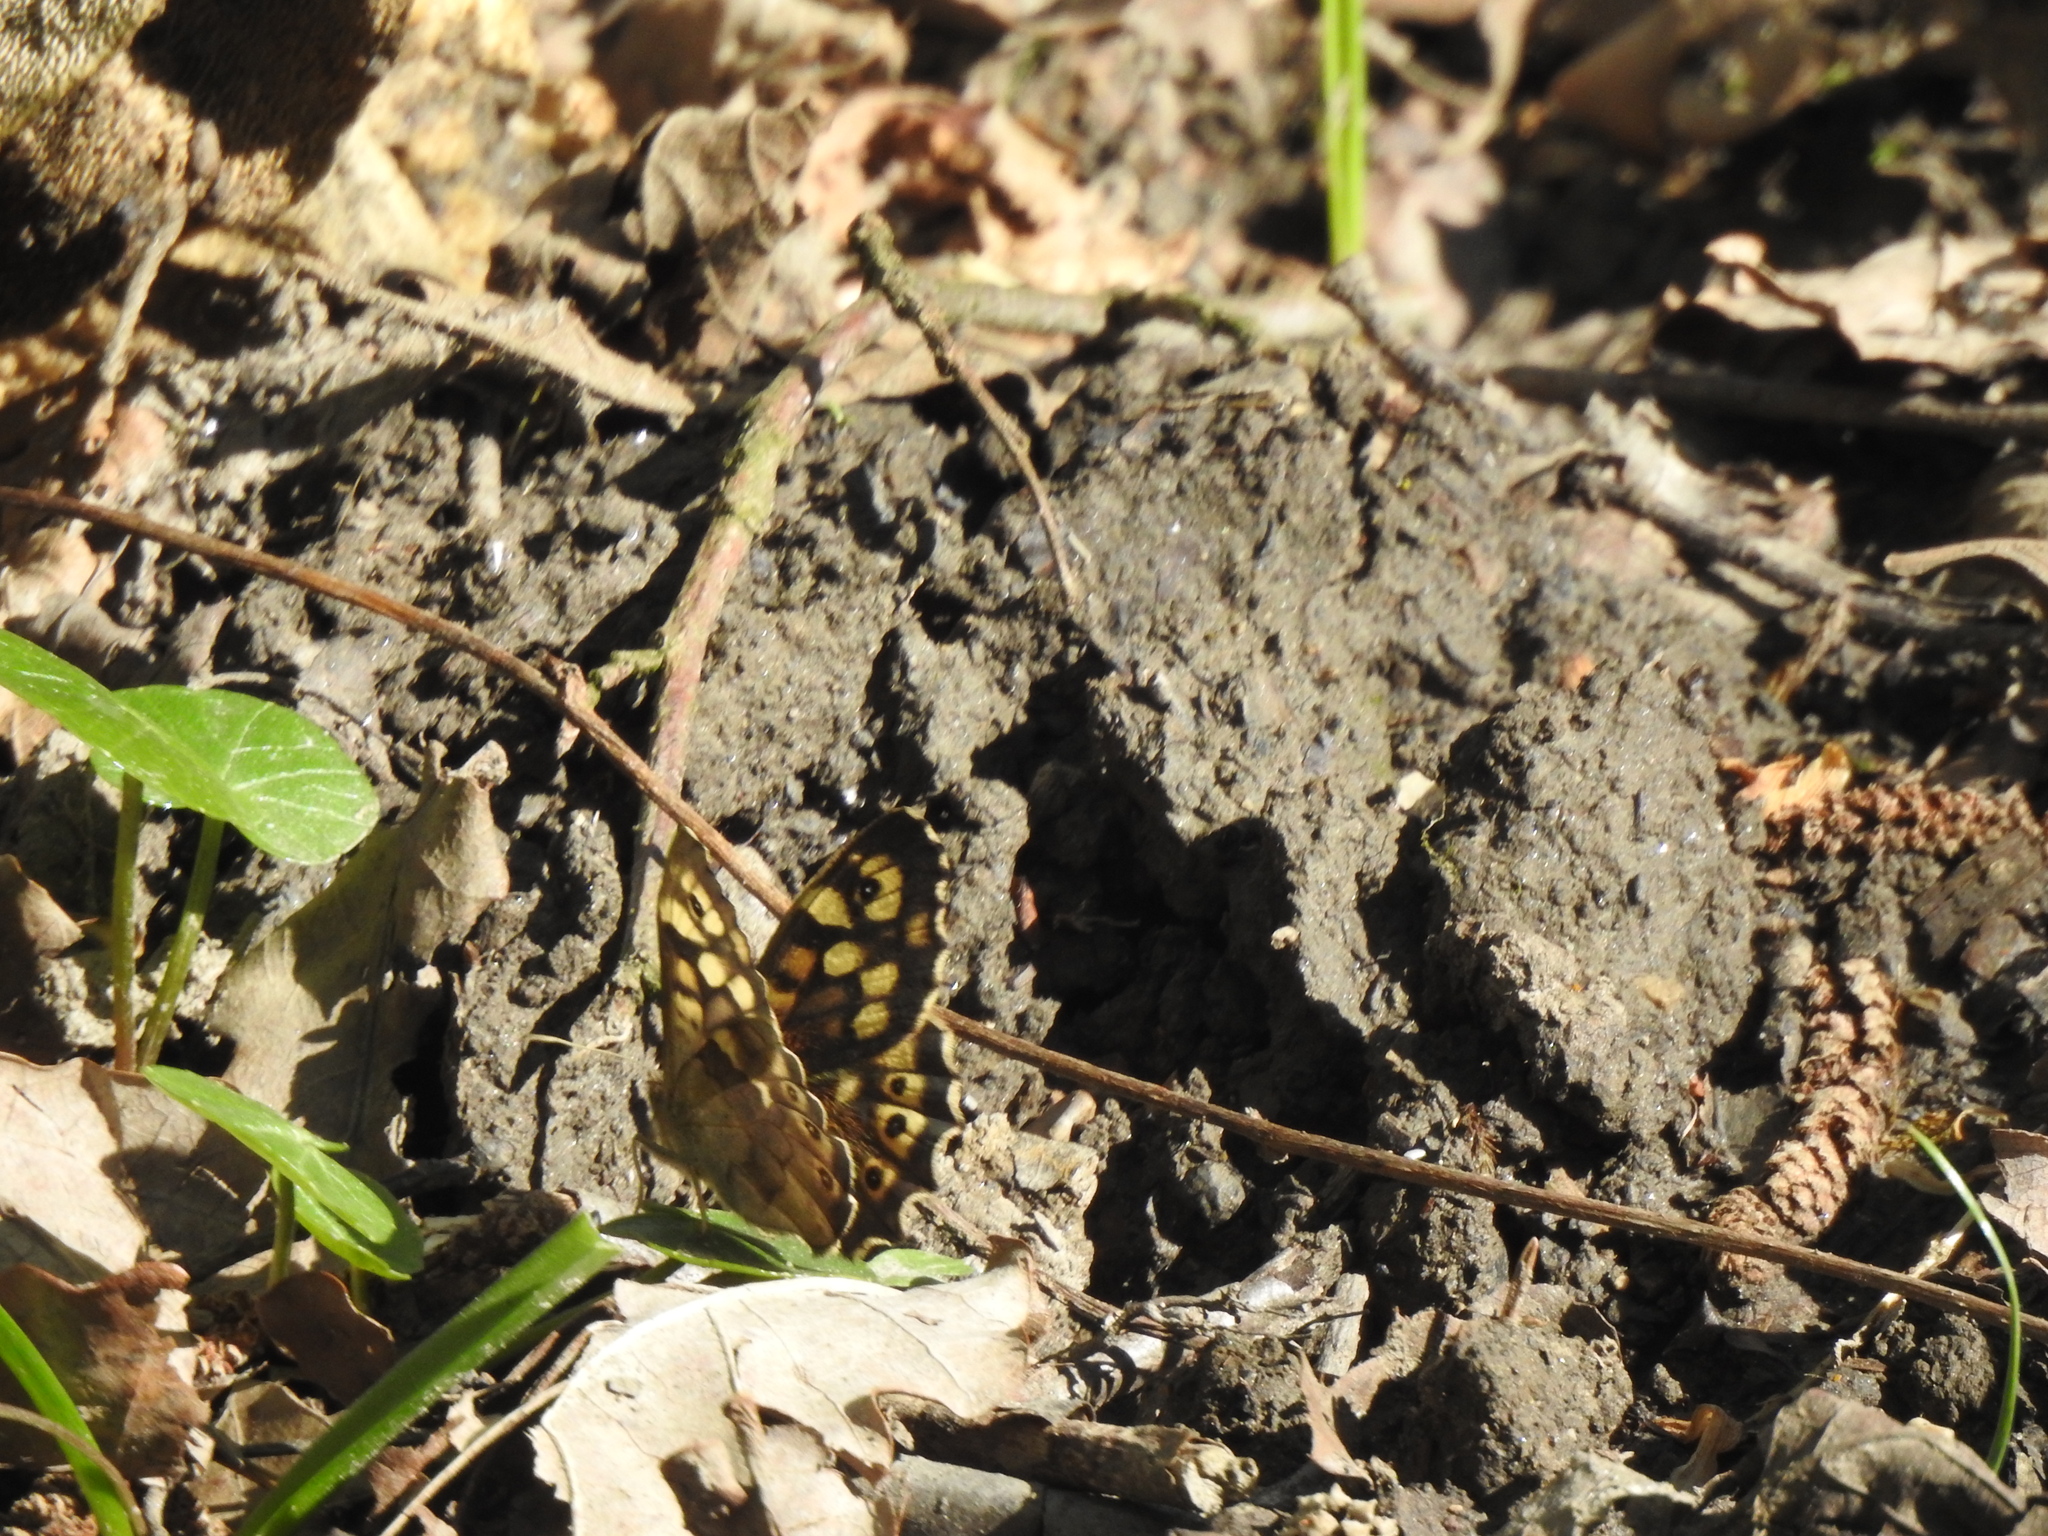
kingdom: Animalia
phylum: Arthropoda
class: Insecta
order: Lepidoptera
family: Nymphalidae
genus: Pararge
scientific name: Pararge aegeria
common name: Speckled wood
